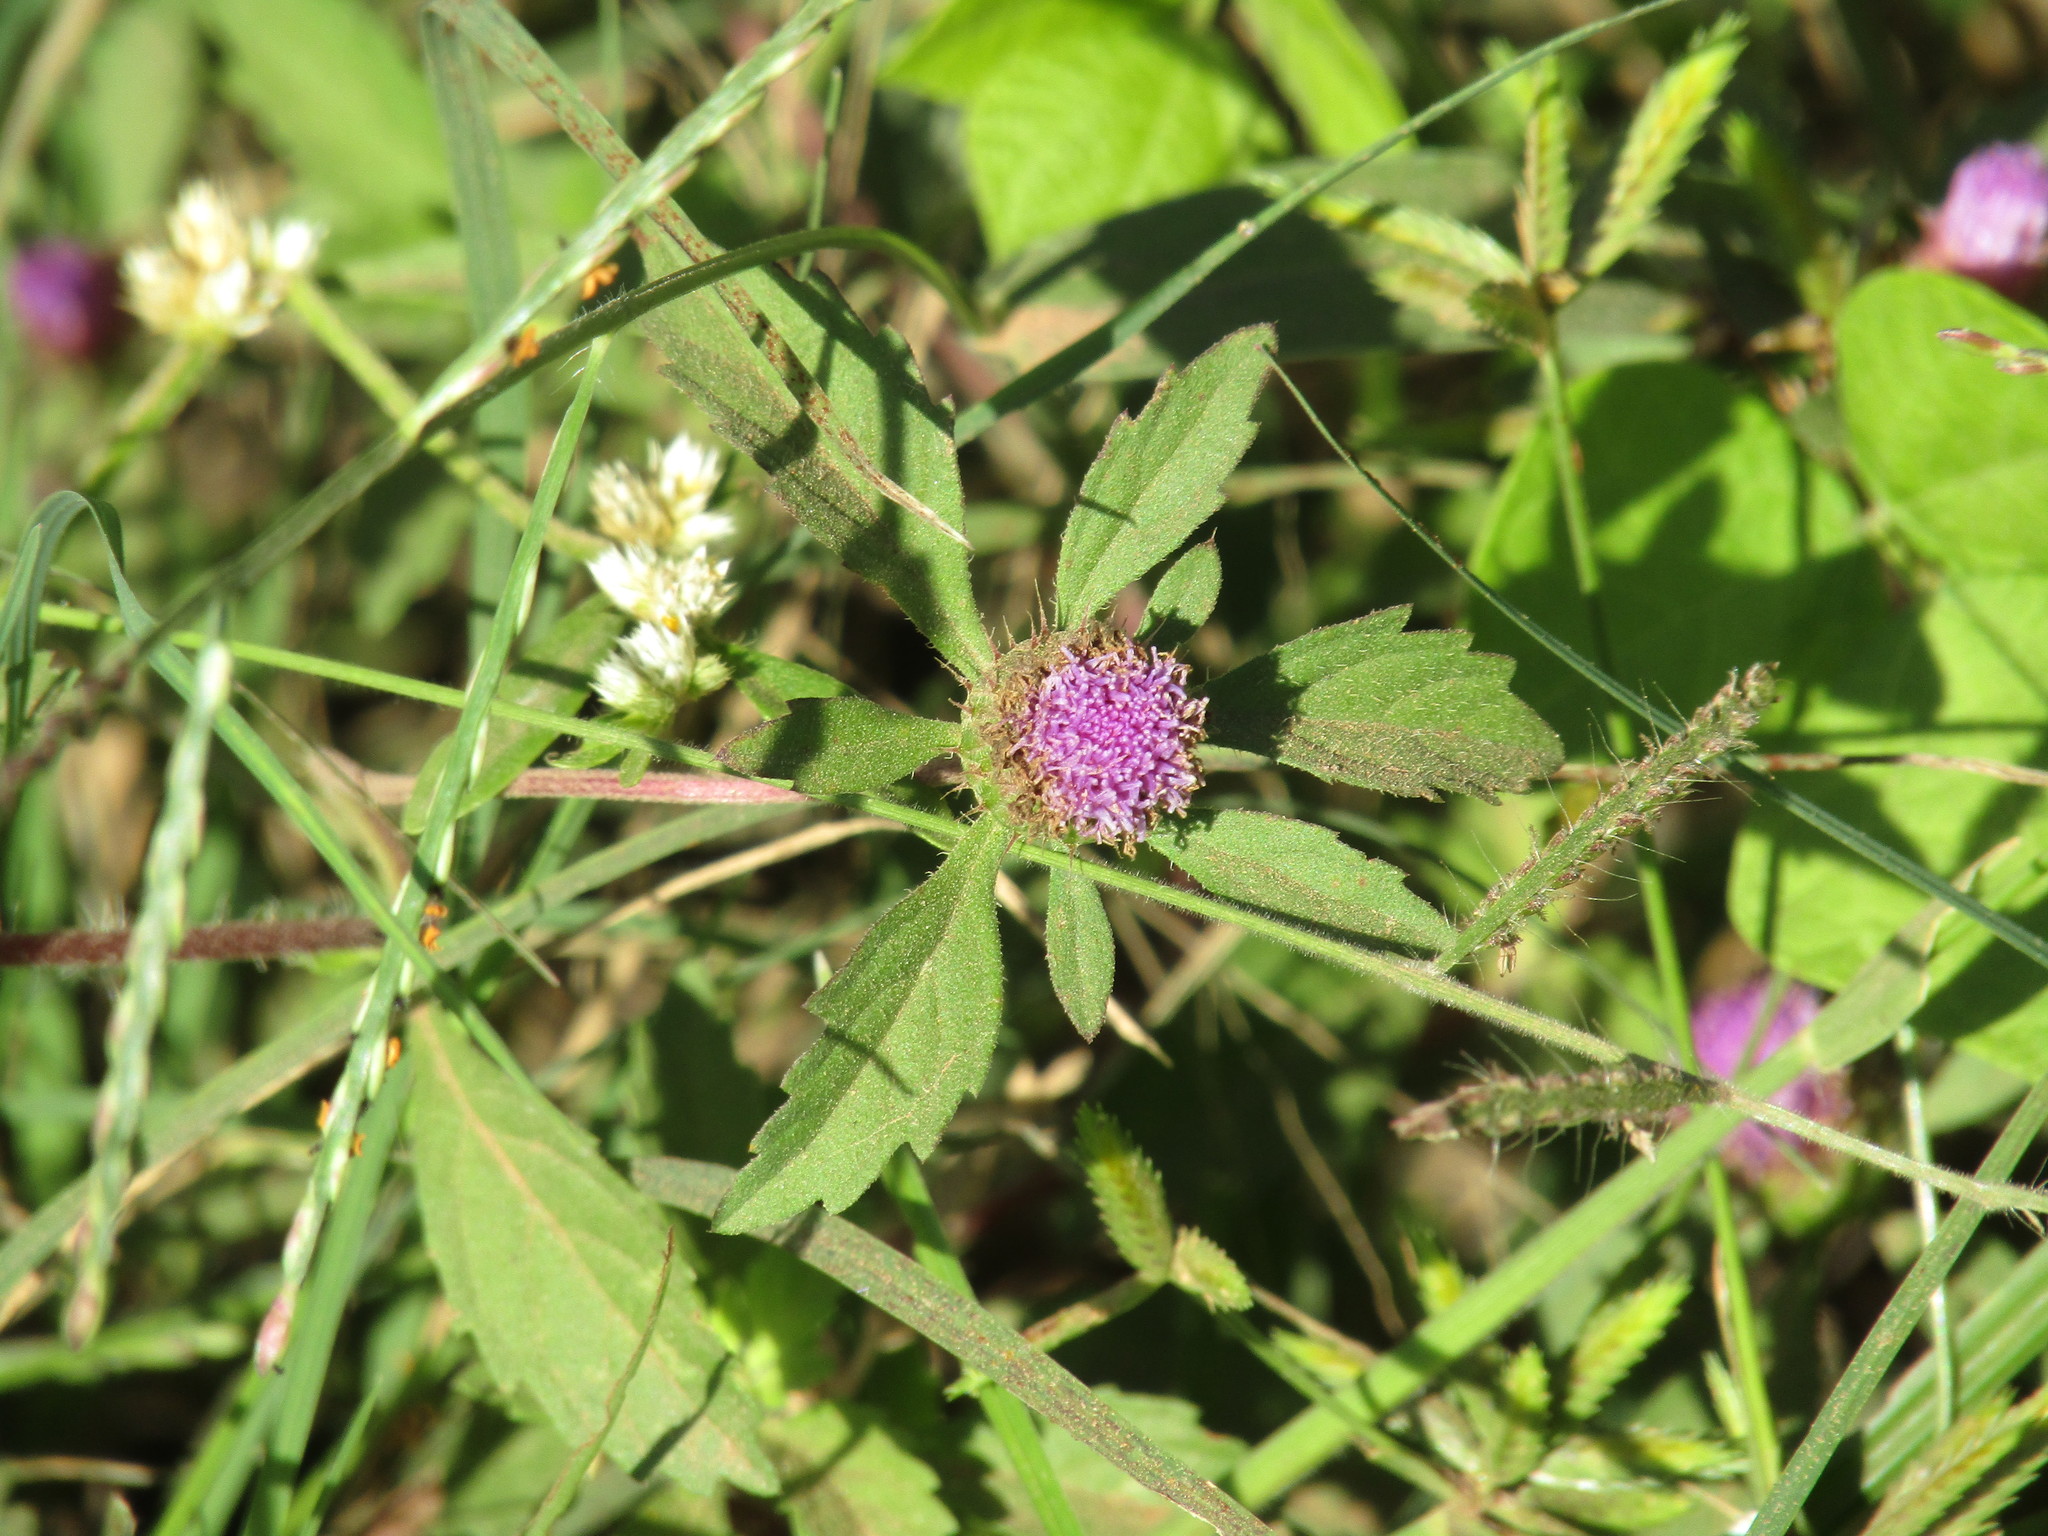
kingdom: Plantae
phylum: Tracheophyta
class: Magnoliopsida
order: Asterales
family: Asteraceae
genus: Centratherum
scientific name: Centratherum punctatum
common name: Larkdaisy
